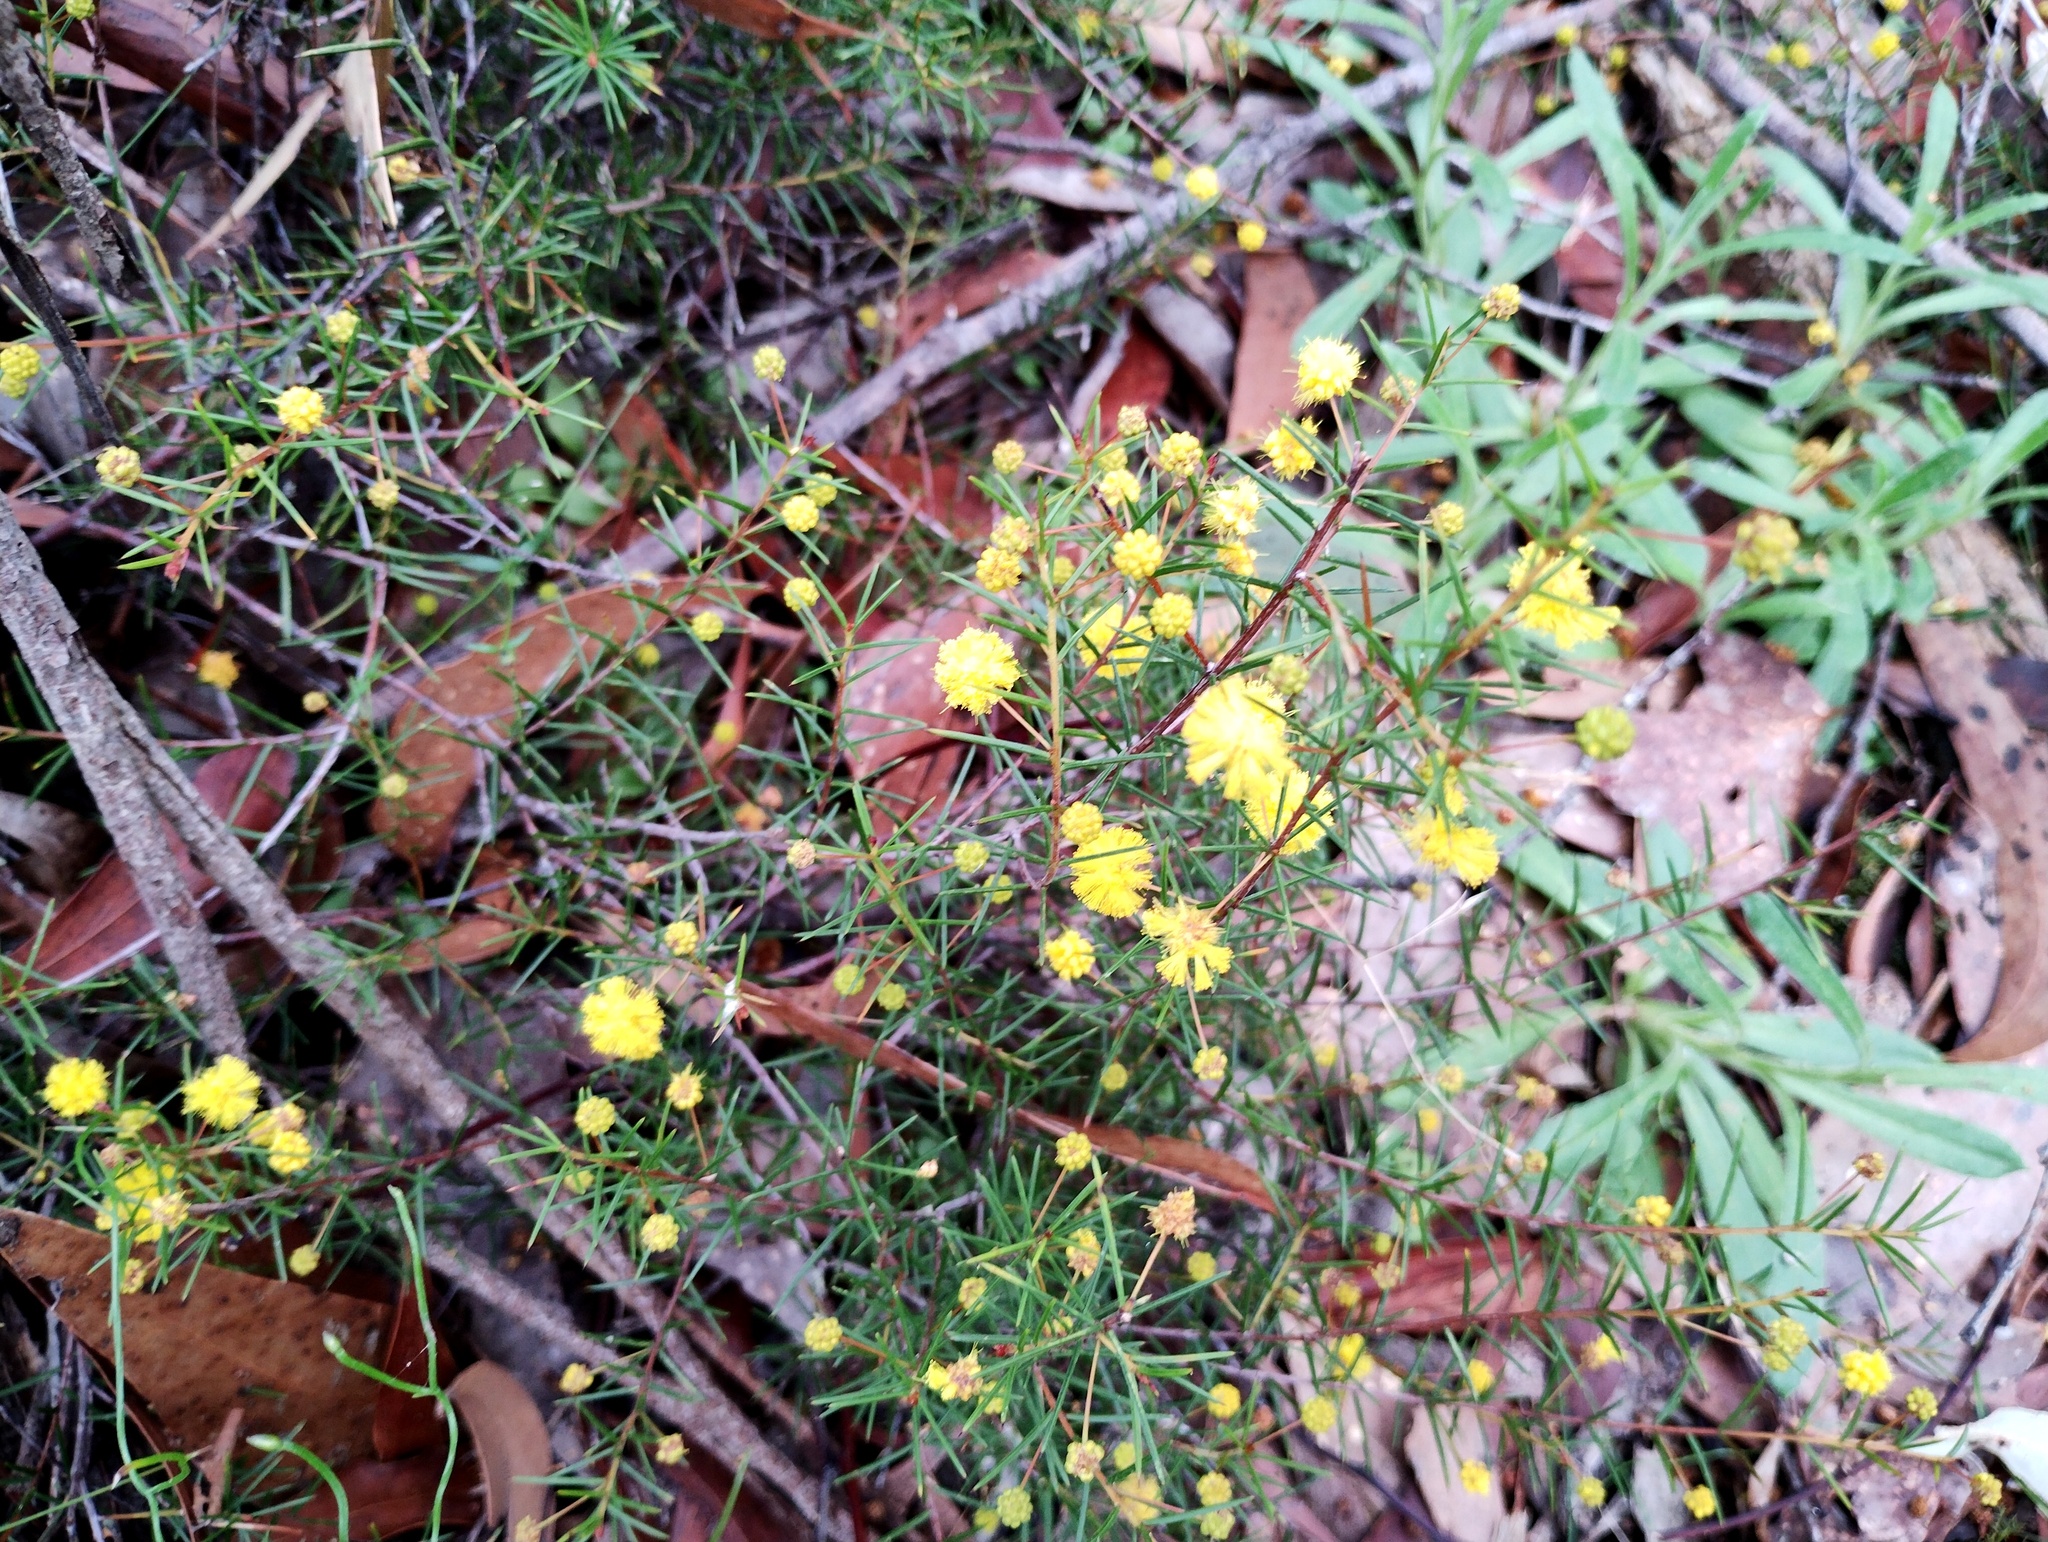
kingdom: Plantae
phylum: Tracheophyta
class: Magnoliopsida
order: Fabales
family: Fabaceae
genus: Acacia
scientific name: Acacia brownii
